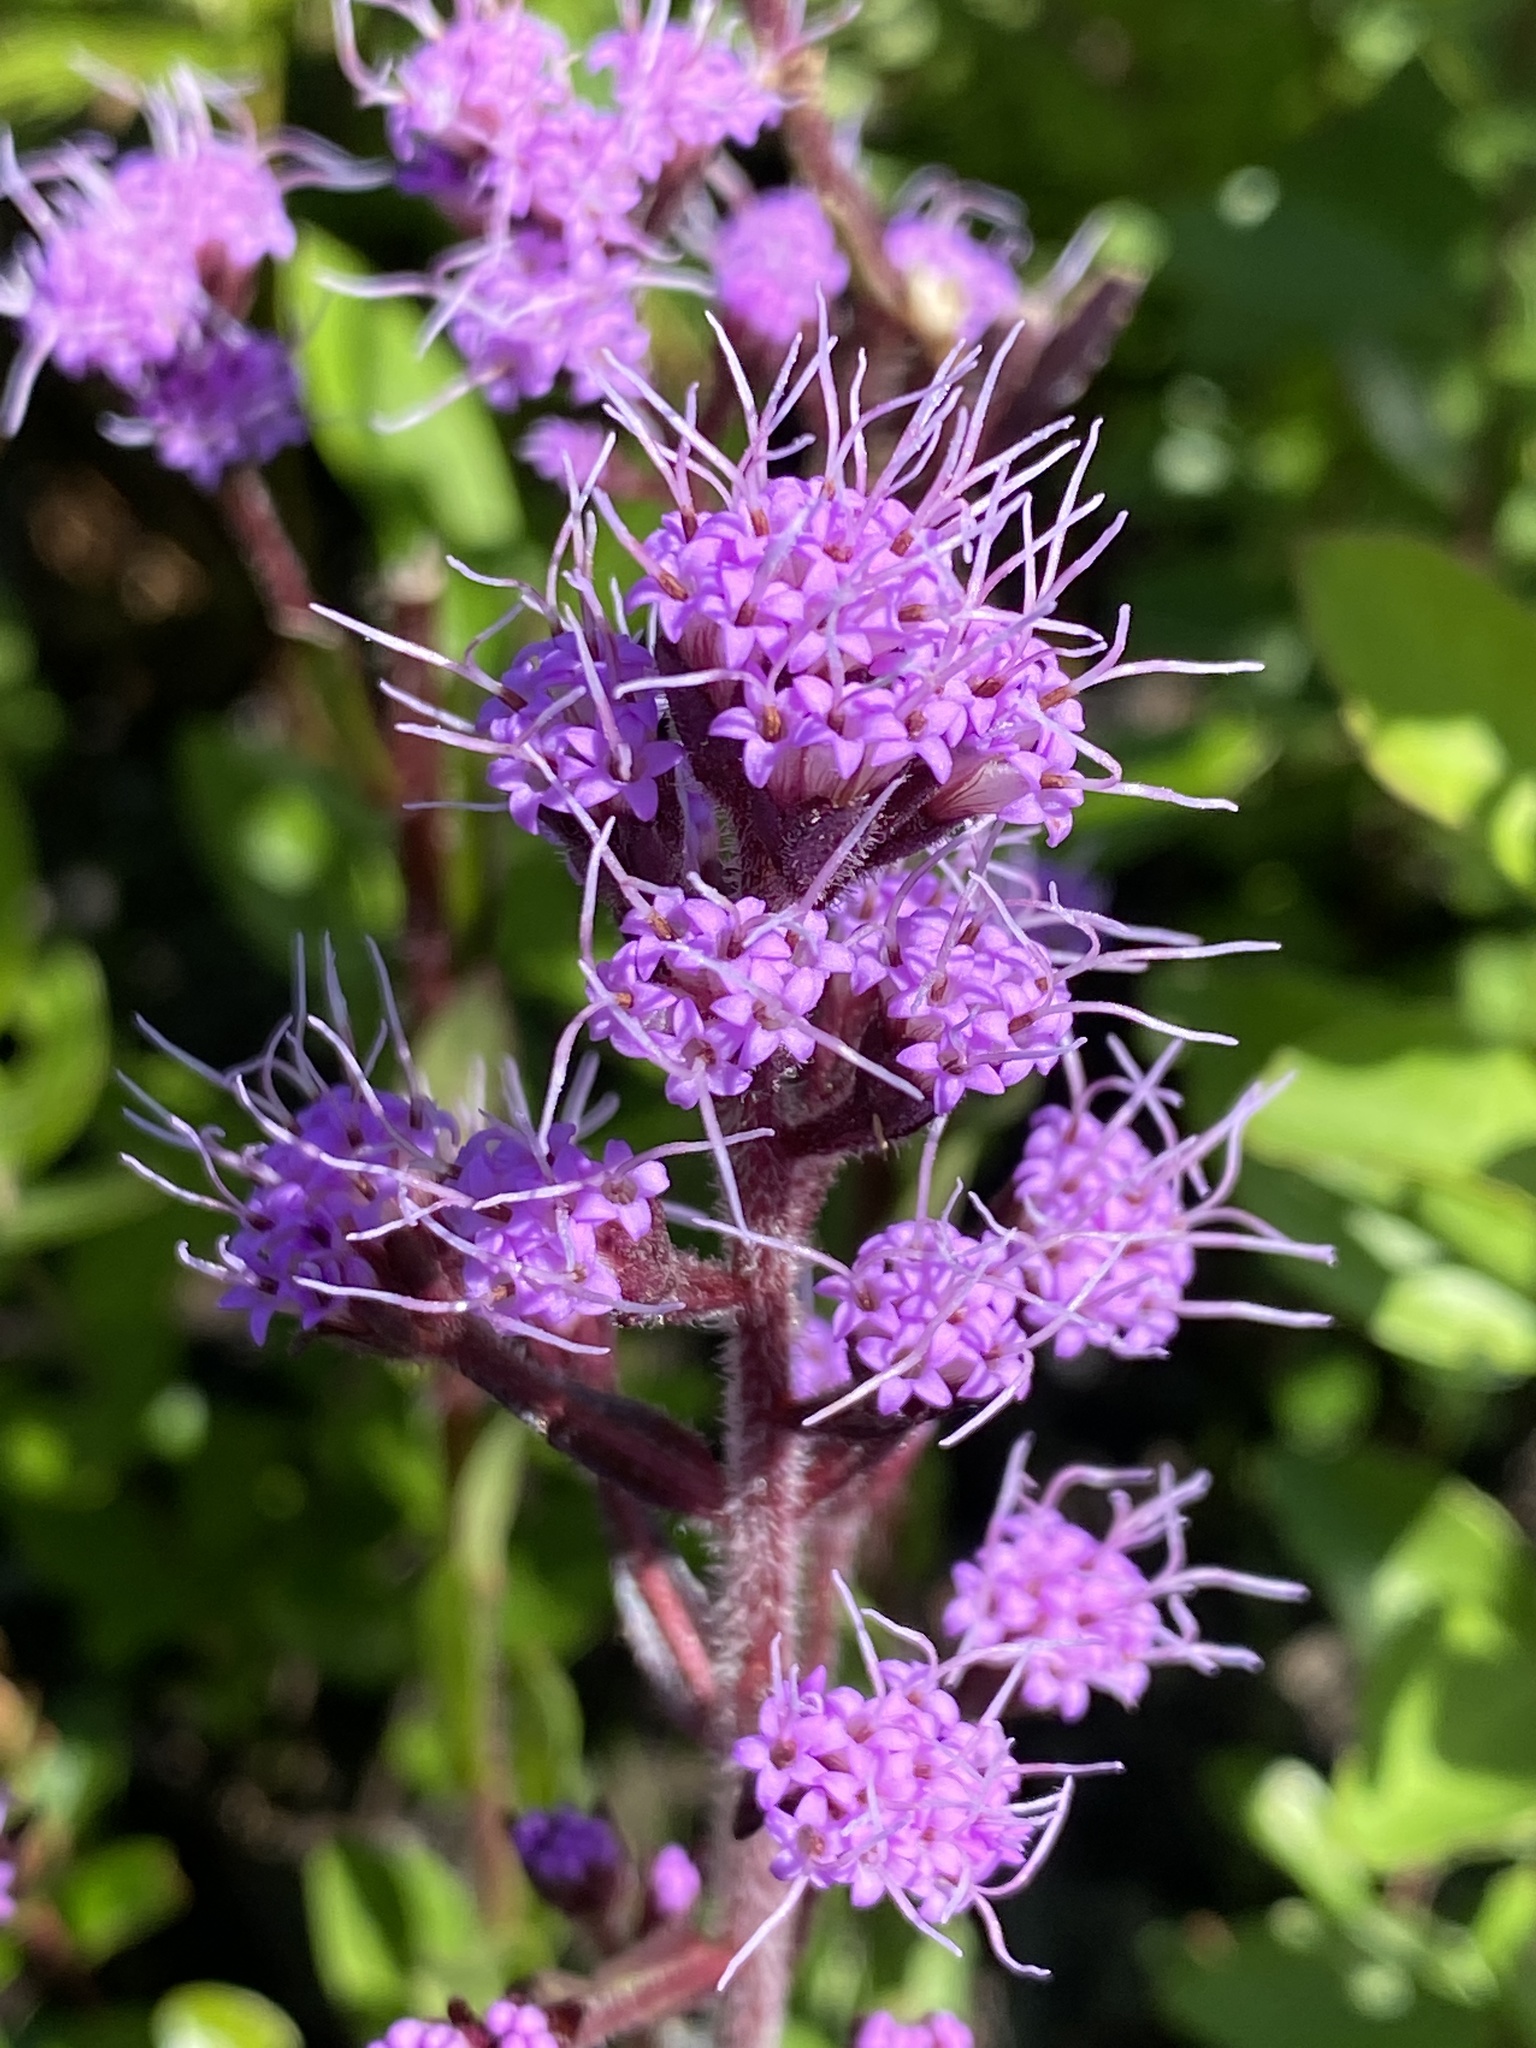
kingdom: Plantae
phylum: Tracheophyta
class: Magnoliopsida
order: Asterales
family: Asteraceae
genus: Carphephorus
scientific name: Carphephorus paniculatus
